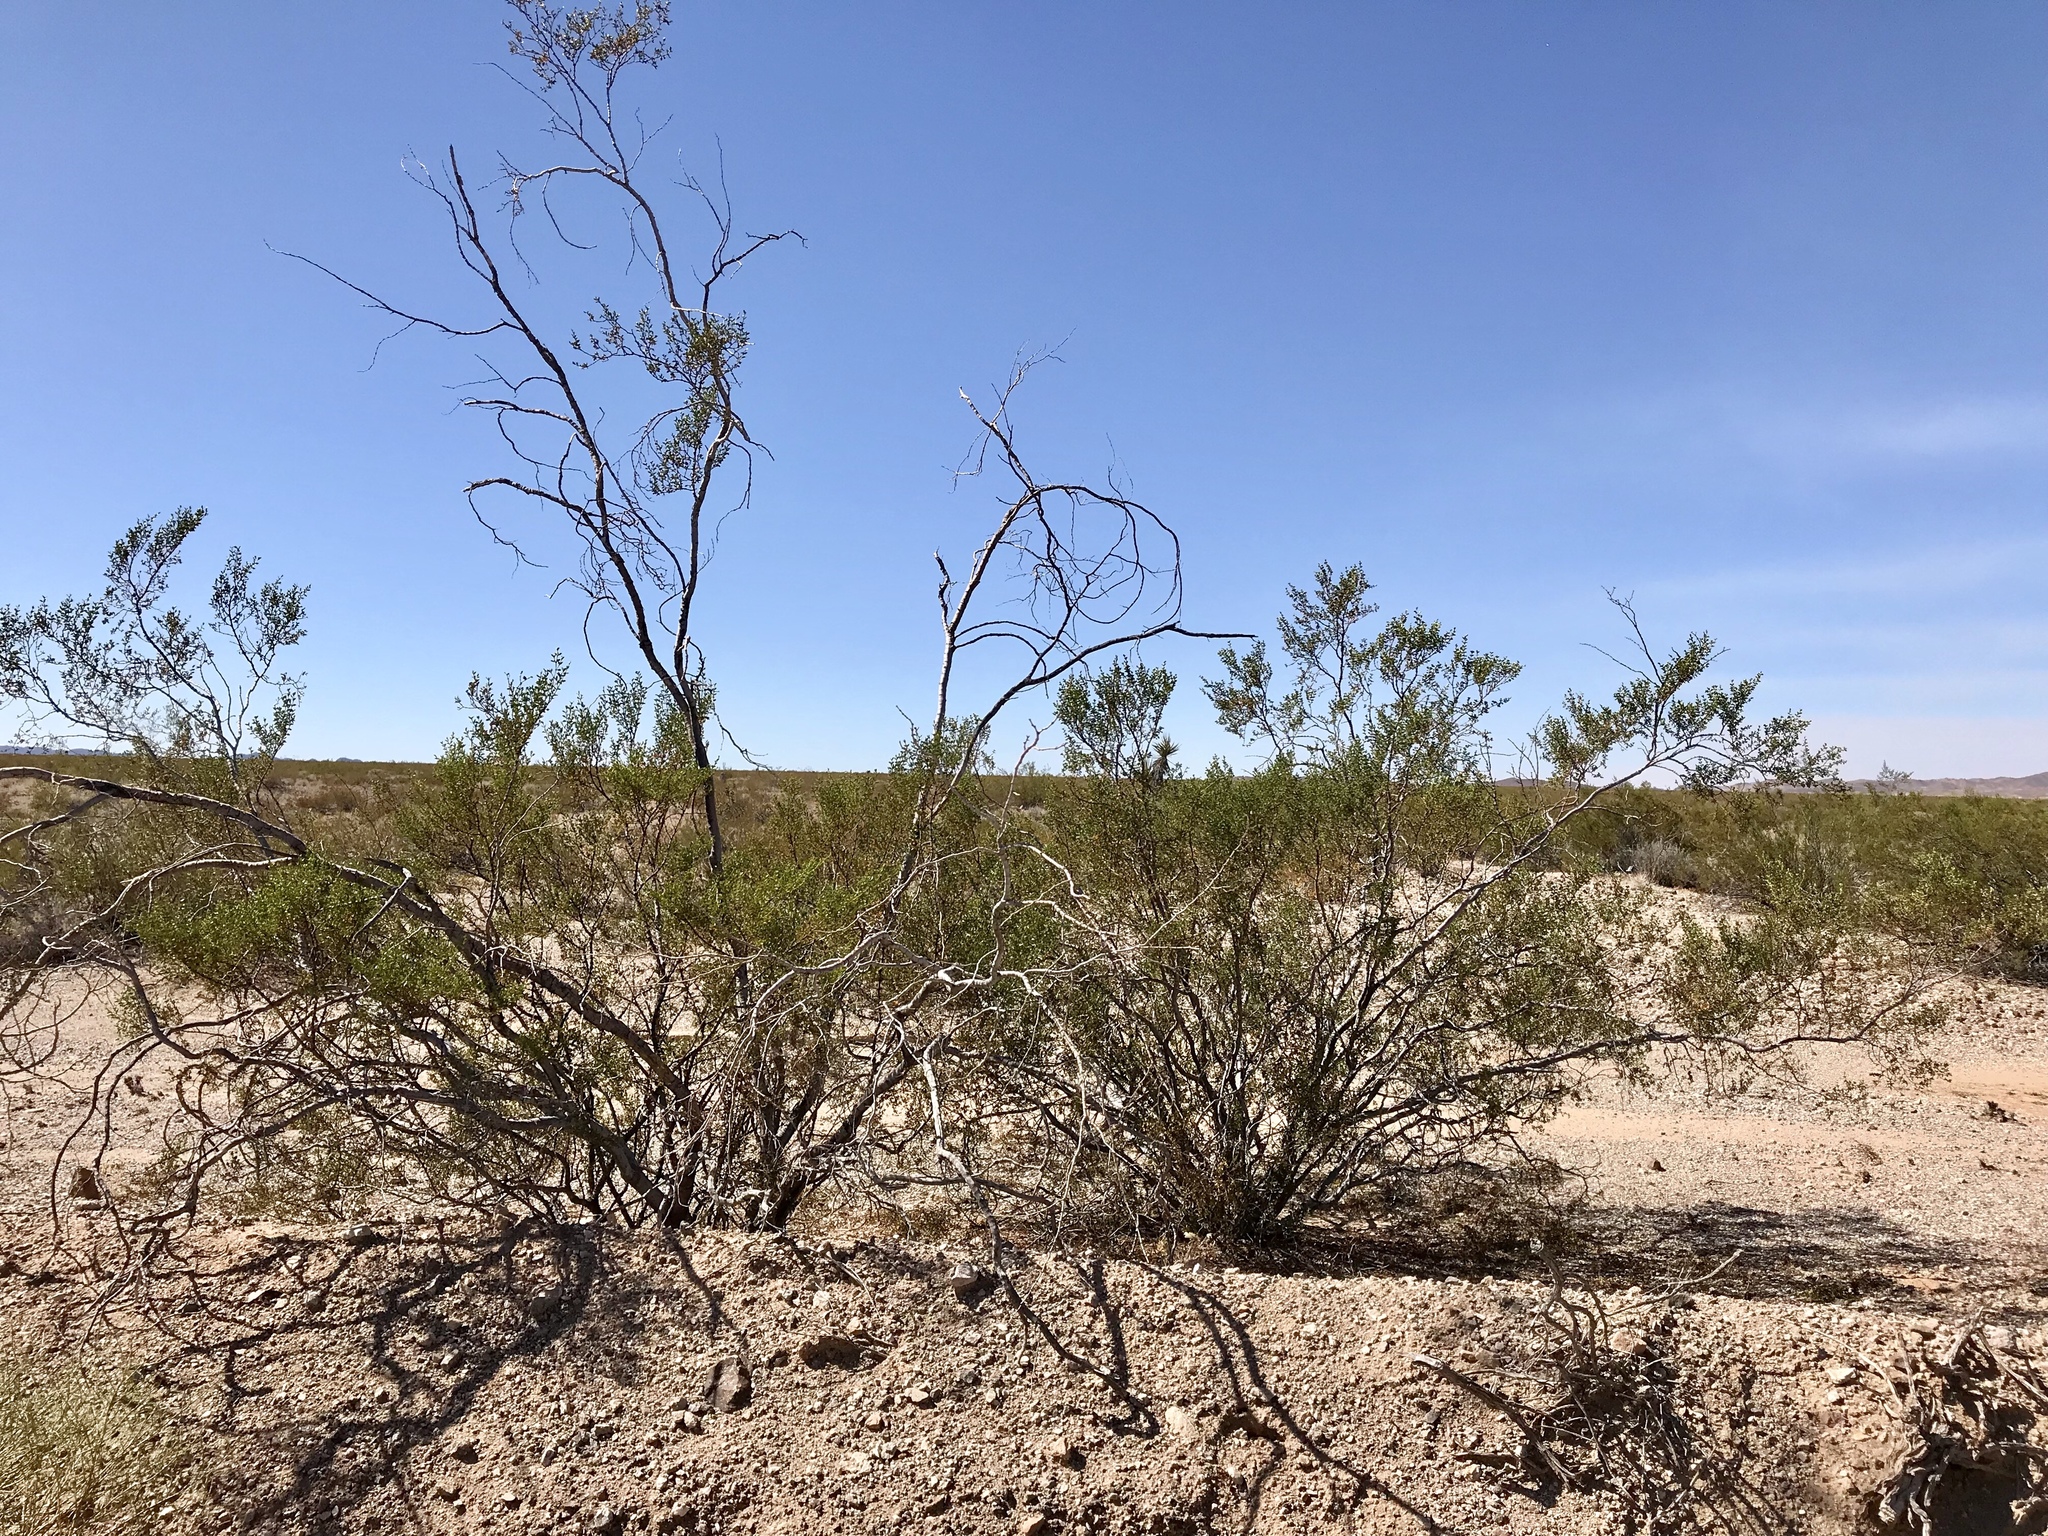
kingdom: Plantae
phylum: Tracheophyta
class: Magnoliopsida
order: Zygophyllales
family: Zygophyllaceae
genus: Larrea
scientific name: Larrea tridentata
